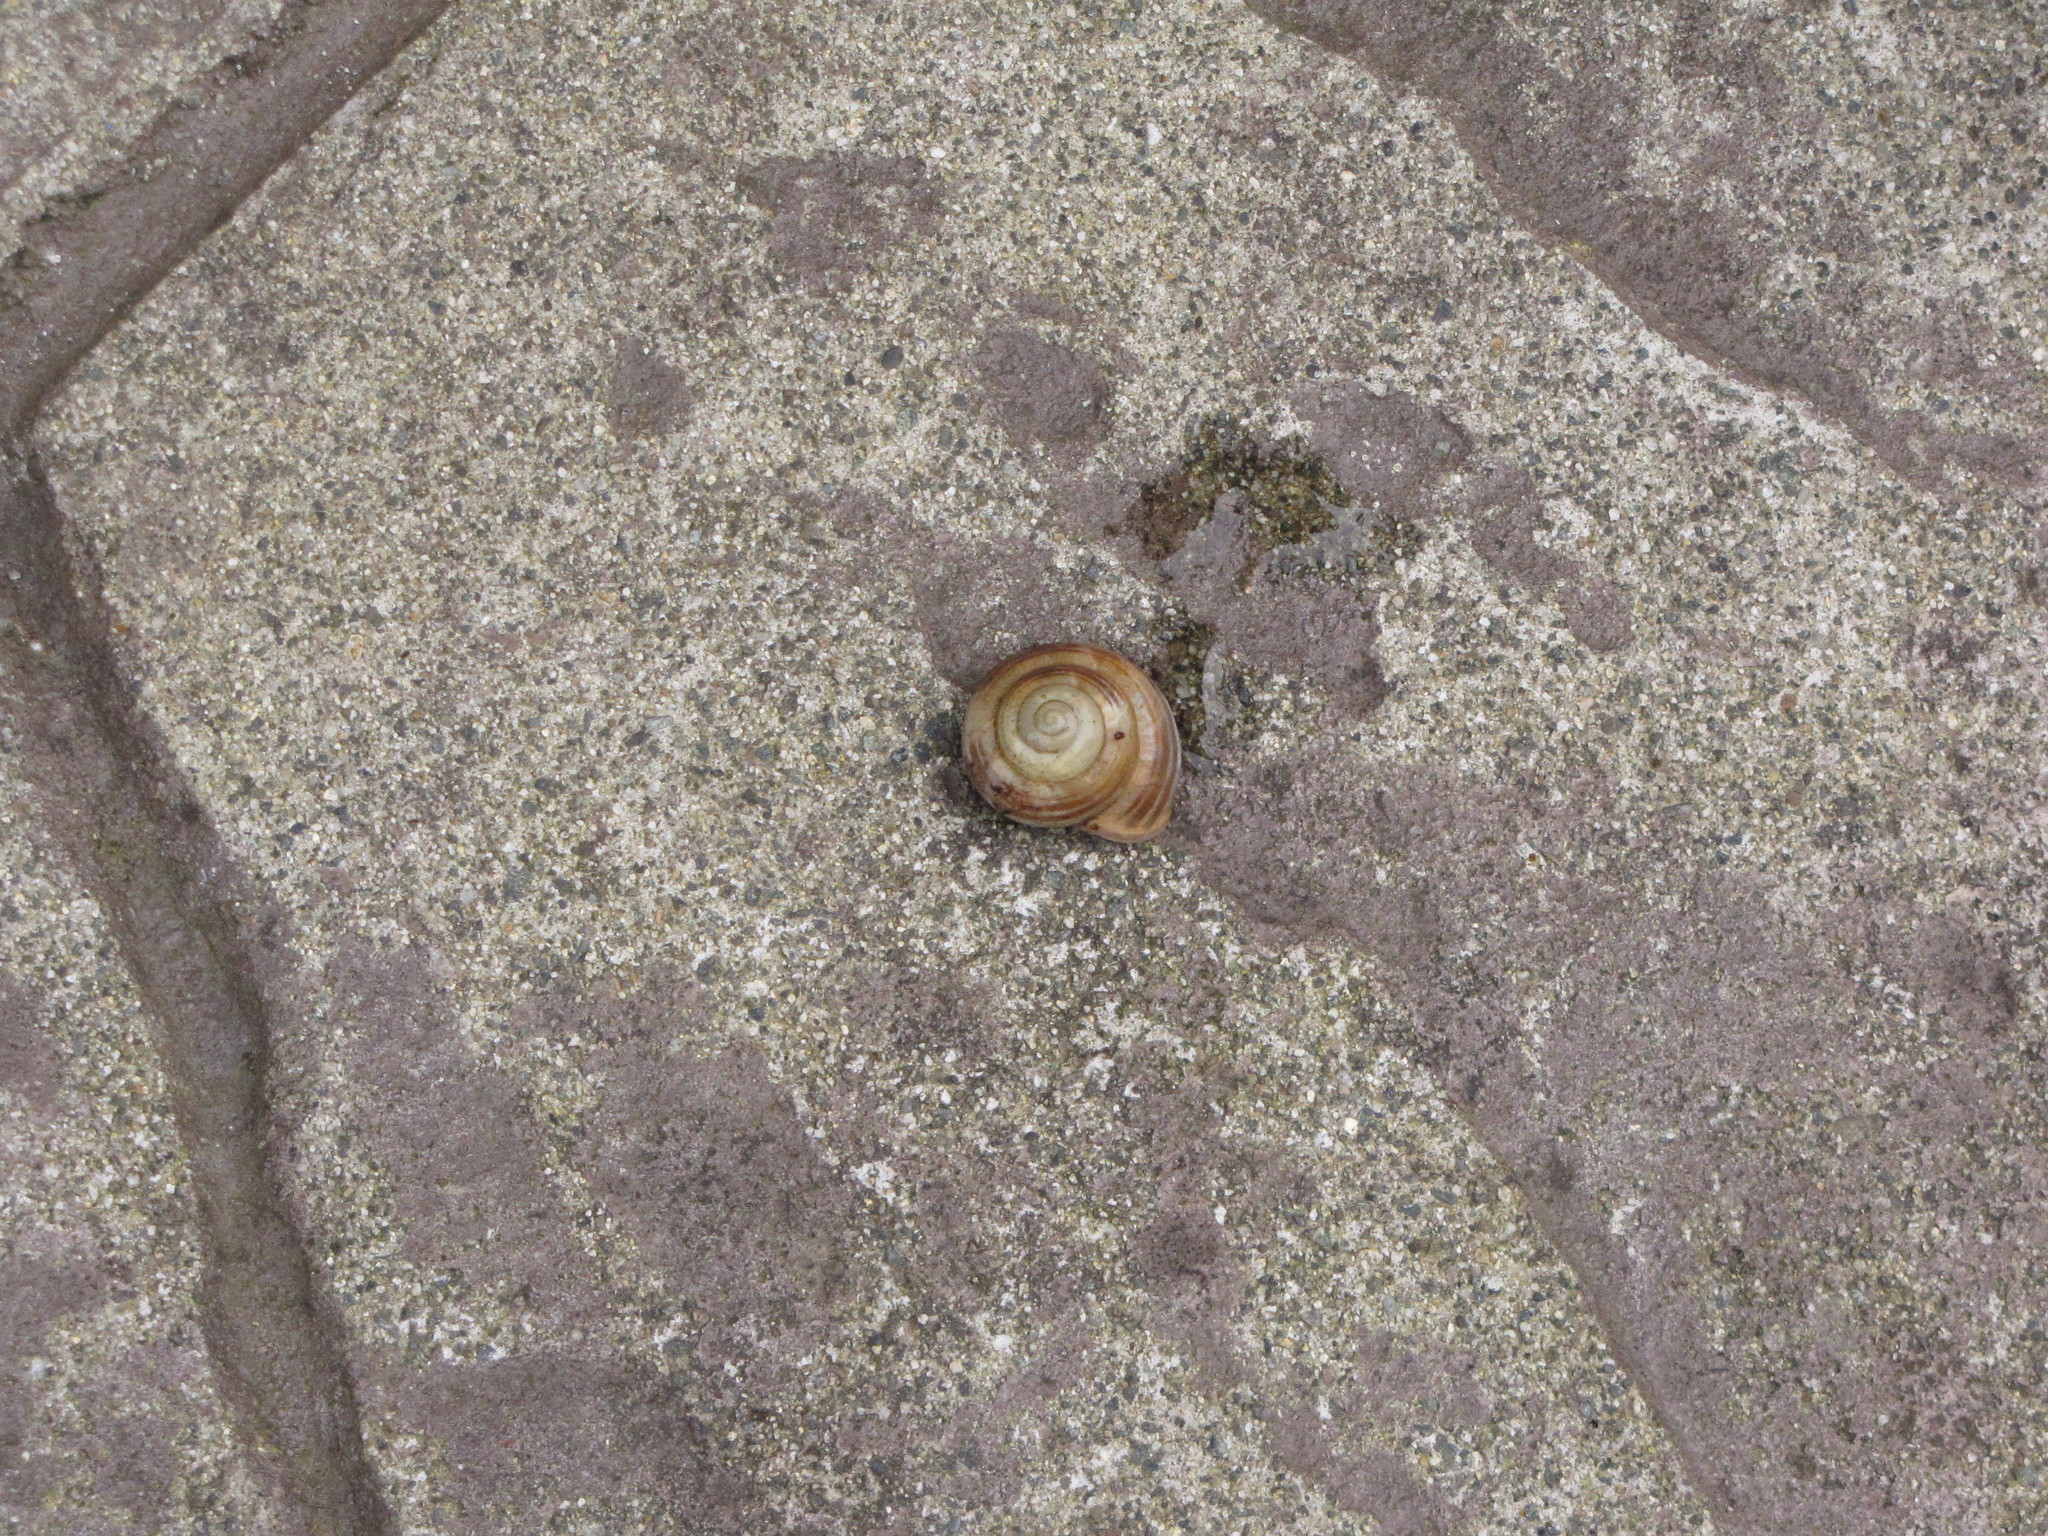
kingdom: Animalia
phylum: Mollusca
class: Gastropoda
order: Stylommatophora
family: Helicidae
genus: Cepaea
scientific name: Cepaea nemoralis
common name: Grovesnail
